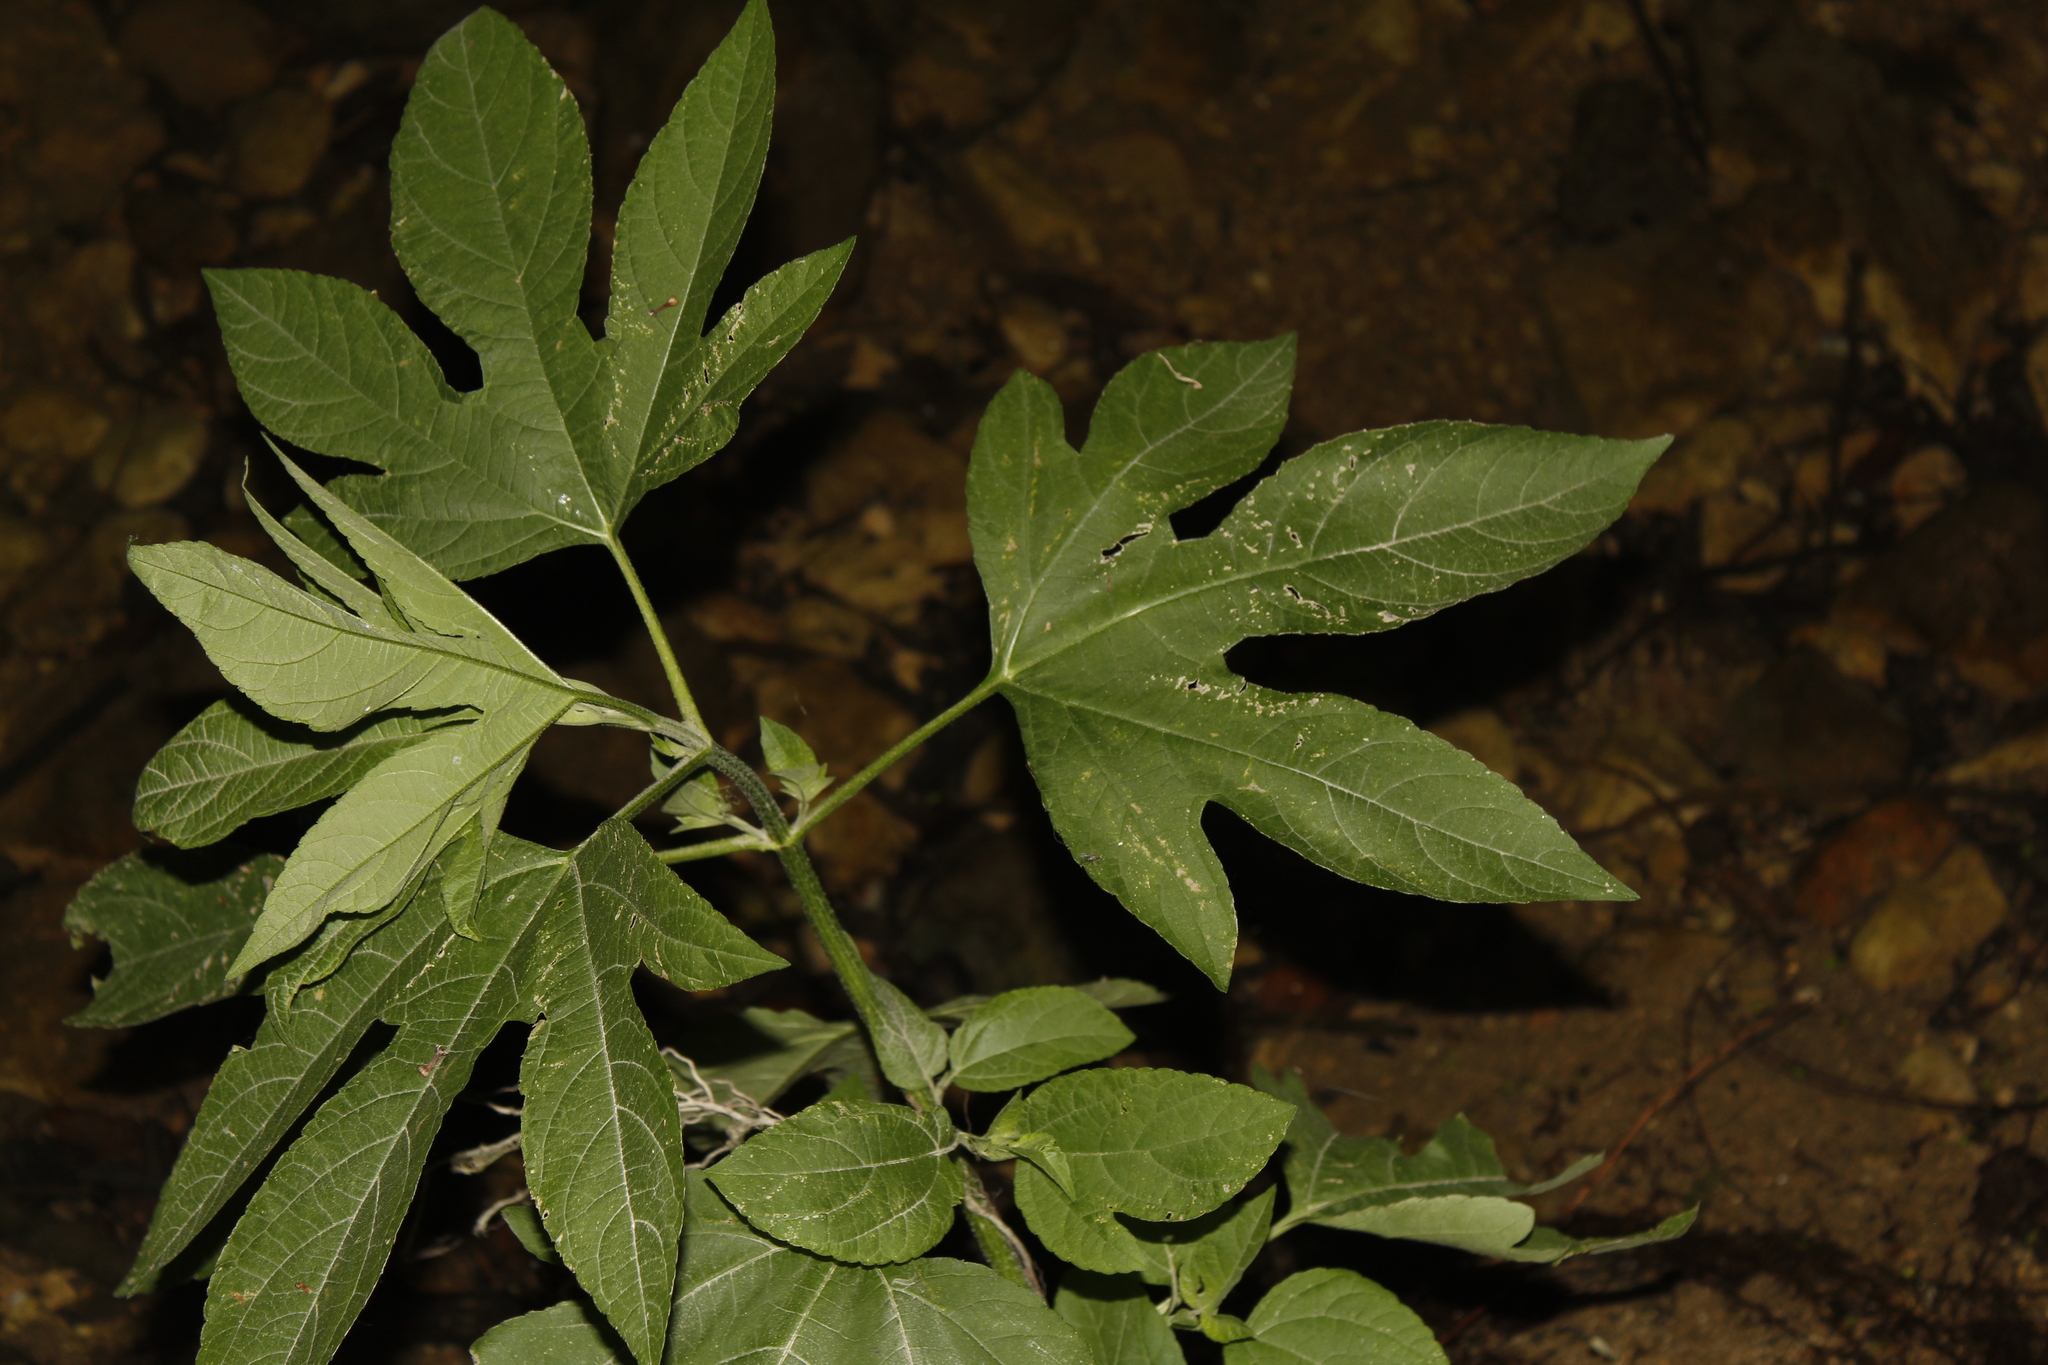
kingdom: Plantae
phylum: Tracheophyta
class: Magnoliopsida
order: Asterales
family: Asteraceae
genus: Ambrosia
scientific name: Ambrosia trifida
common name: Giant ragweed
